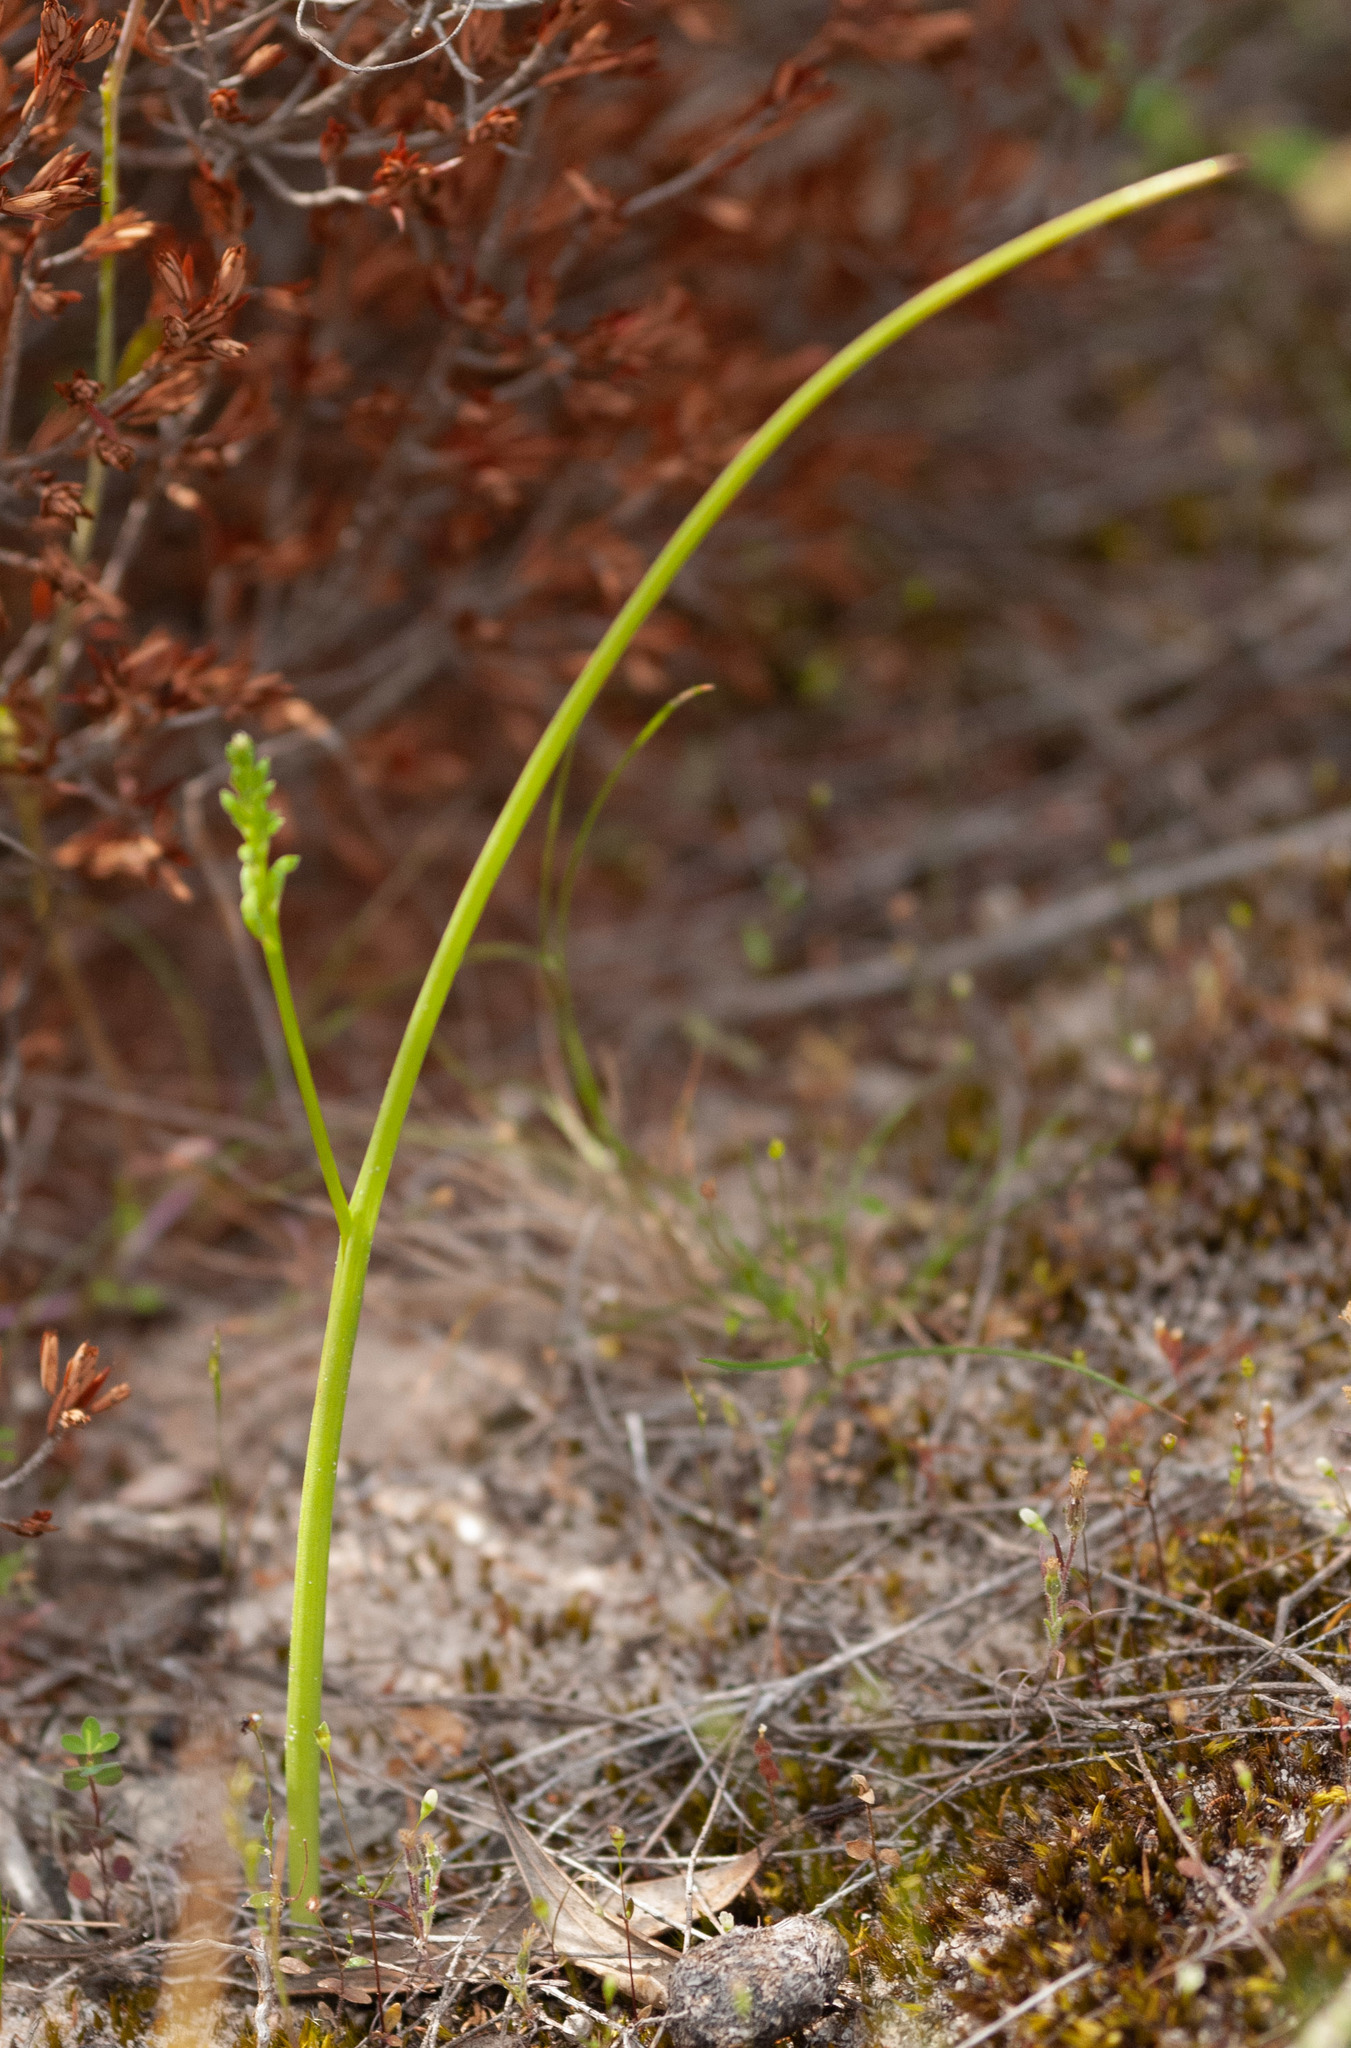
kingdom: Plantae
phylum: Tracheophyta
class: Liliopsida
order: Asparagales
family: Orchidaceae
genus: Microtis
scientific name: Microtis parviflora
